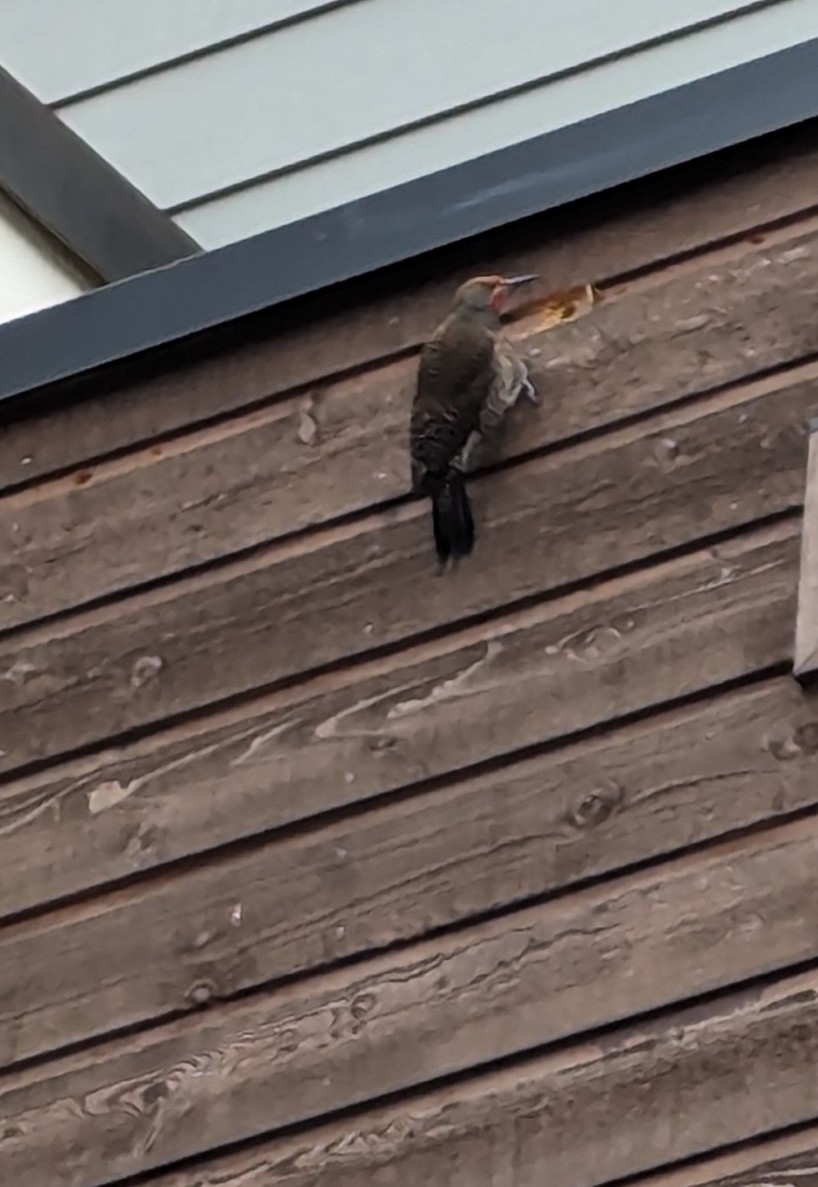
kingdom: Animalia
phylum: Chordata
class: Aves
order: Piciformes
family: Picidae
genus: Colaptes
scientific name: Colaptes auratus
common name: Northern flicker
